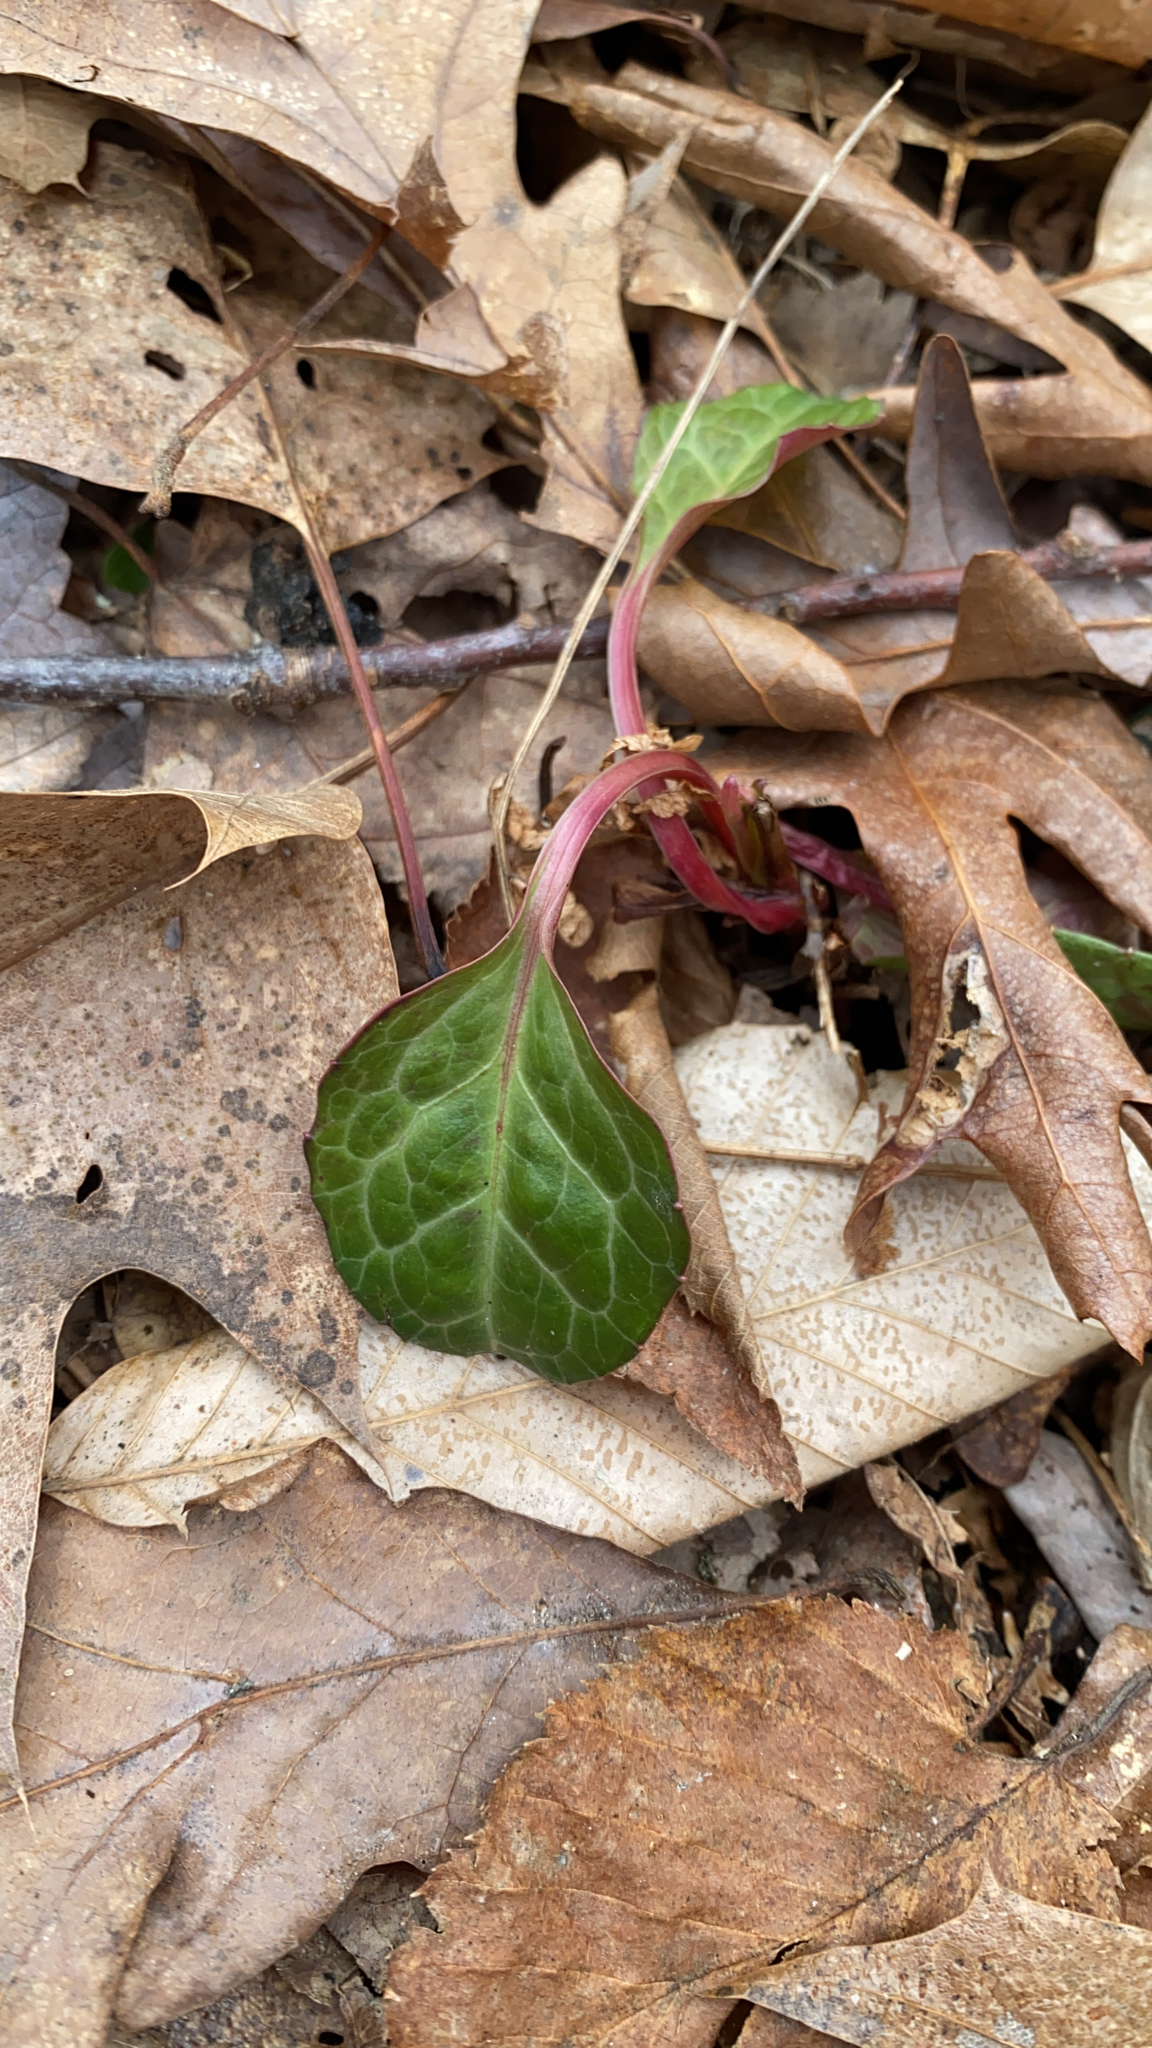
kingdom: Plantae
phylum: Tracheophyta
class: Magnoliopsida
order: Ericales
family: Ericaceae
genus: Pyrola
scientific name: Pyrola americana
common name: American wintergreen
